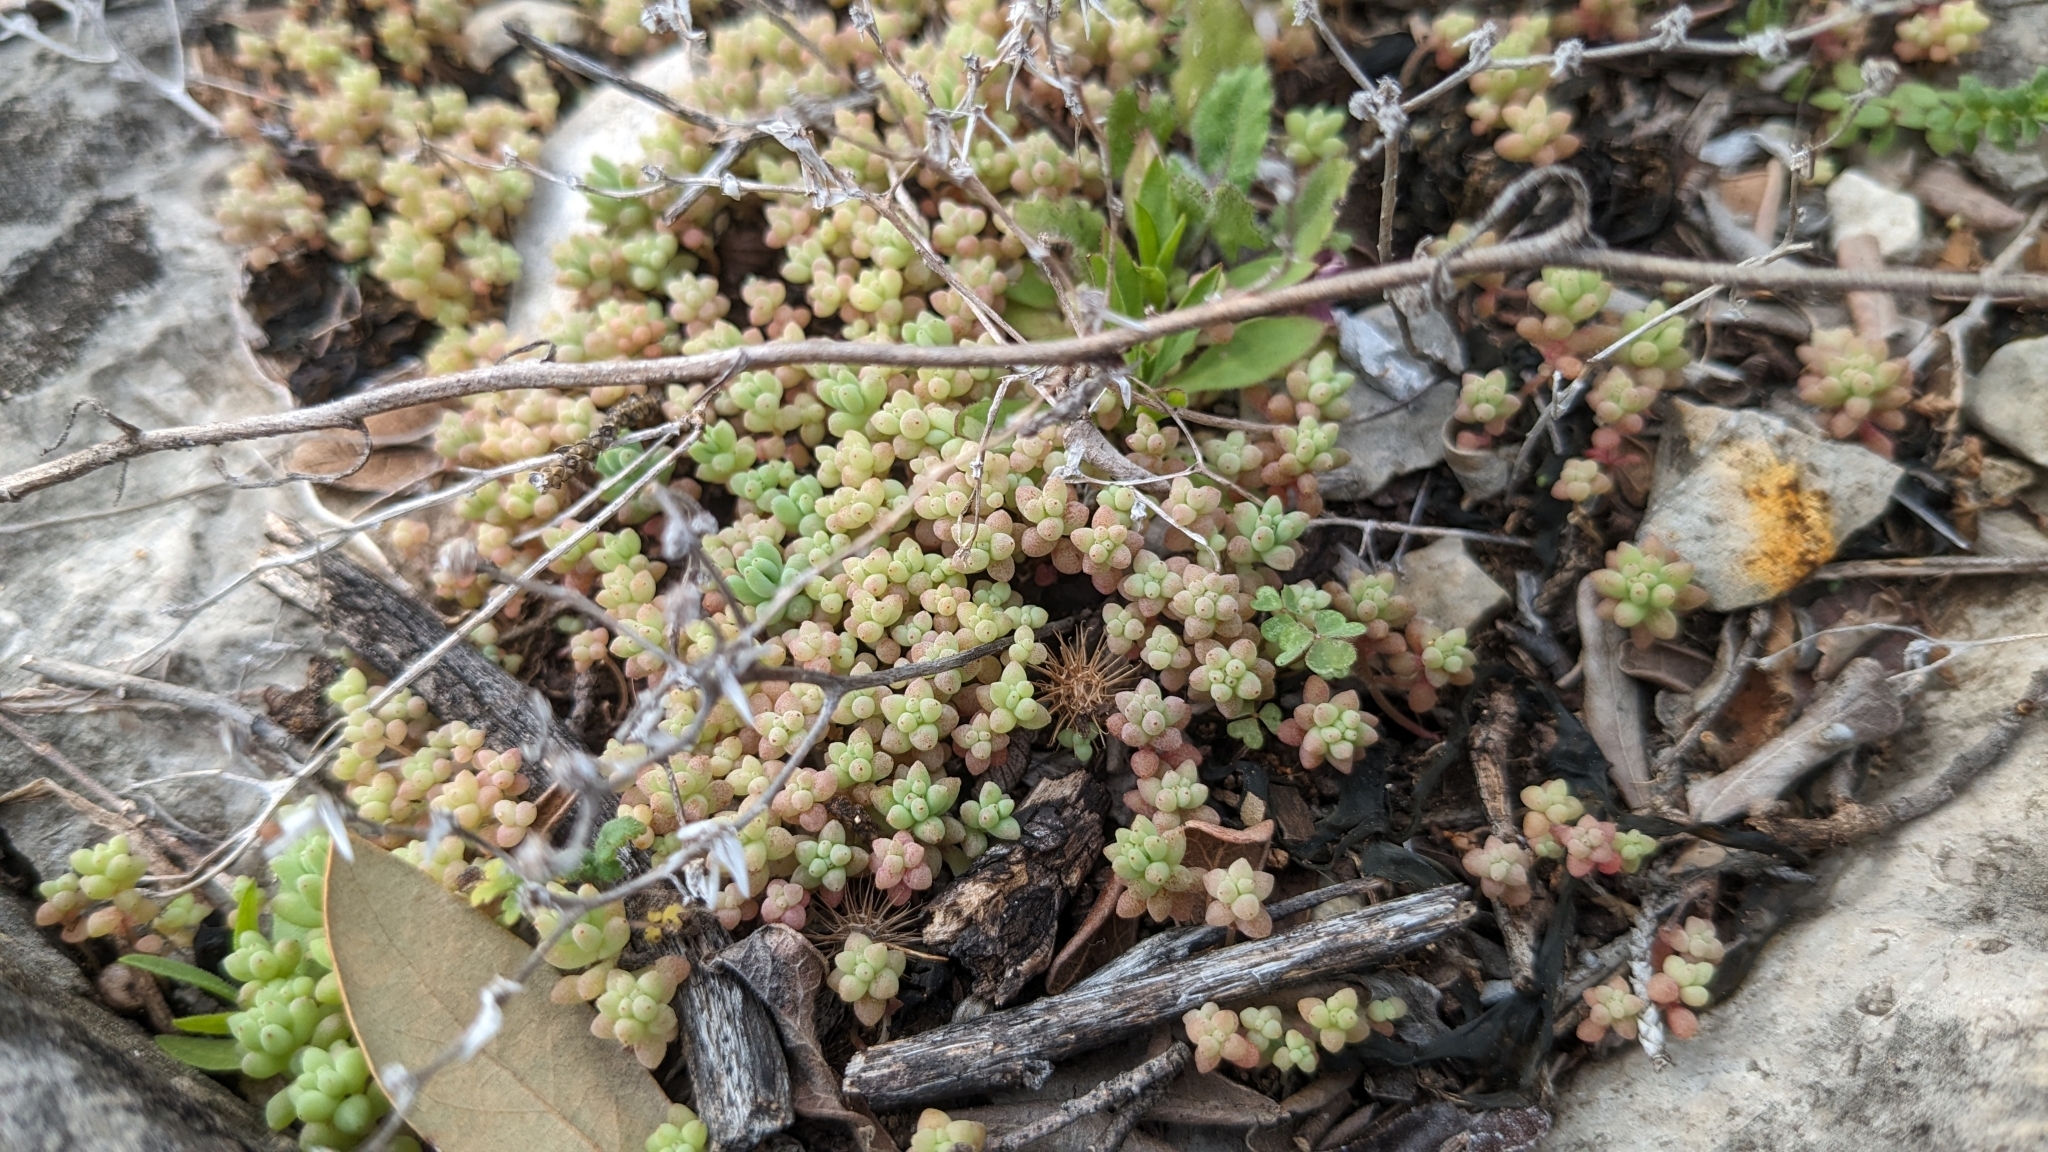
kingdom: Plantae
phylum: Tracheophyta
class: Magnoliopsida
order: Saxifragales
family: Crassulaceae
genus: Sedum
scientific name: Sedum nuttallii
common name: Yellow stonecrop
